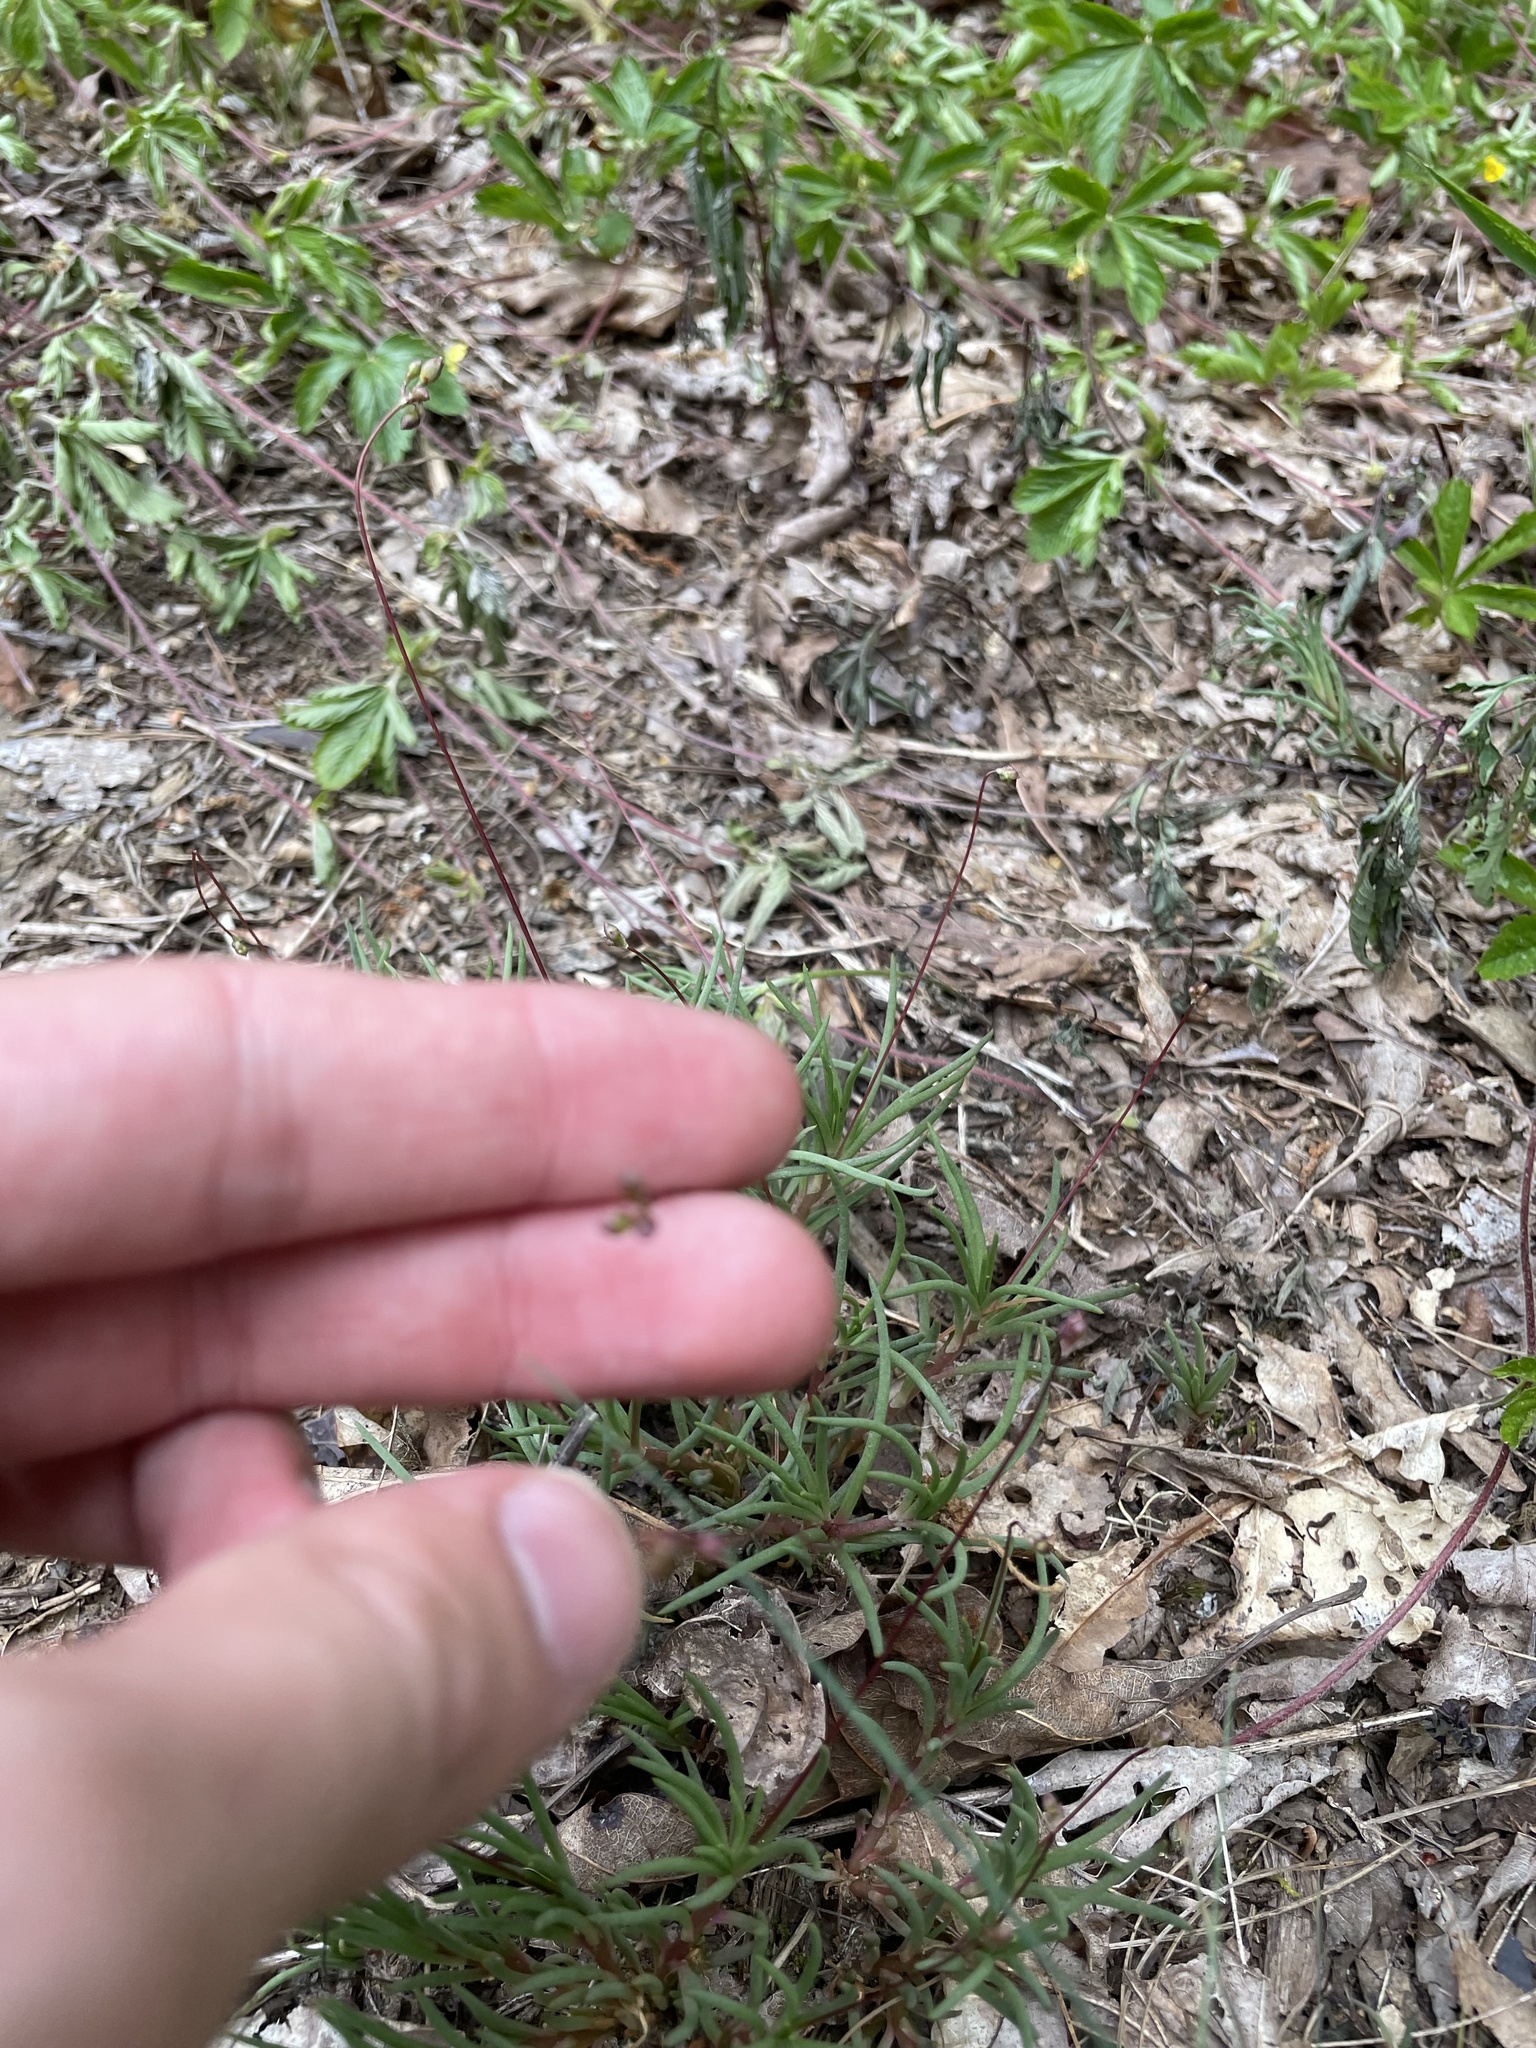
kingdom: Plantae
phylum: Tracheophyta
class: Magnoliopsida
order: Caryophyllales
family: Montiaceae
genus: Phemeranthus
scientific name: Phemeranthus teretifolius
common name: Quill fameflower
